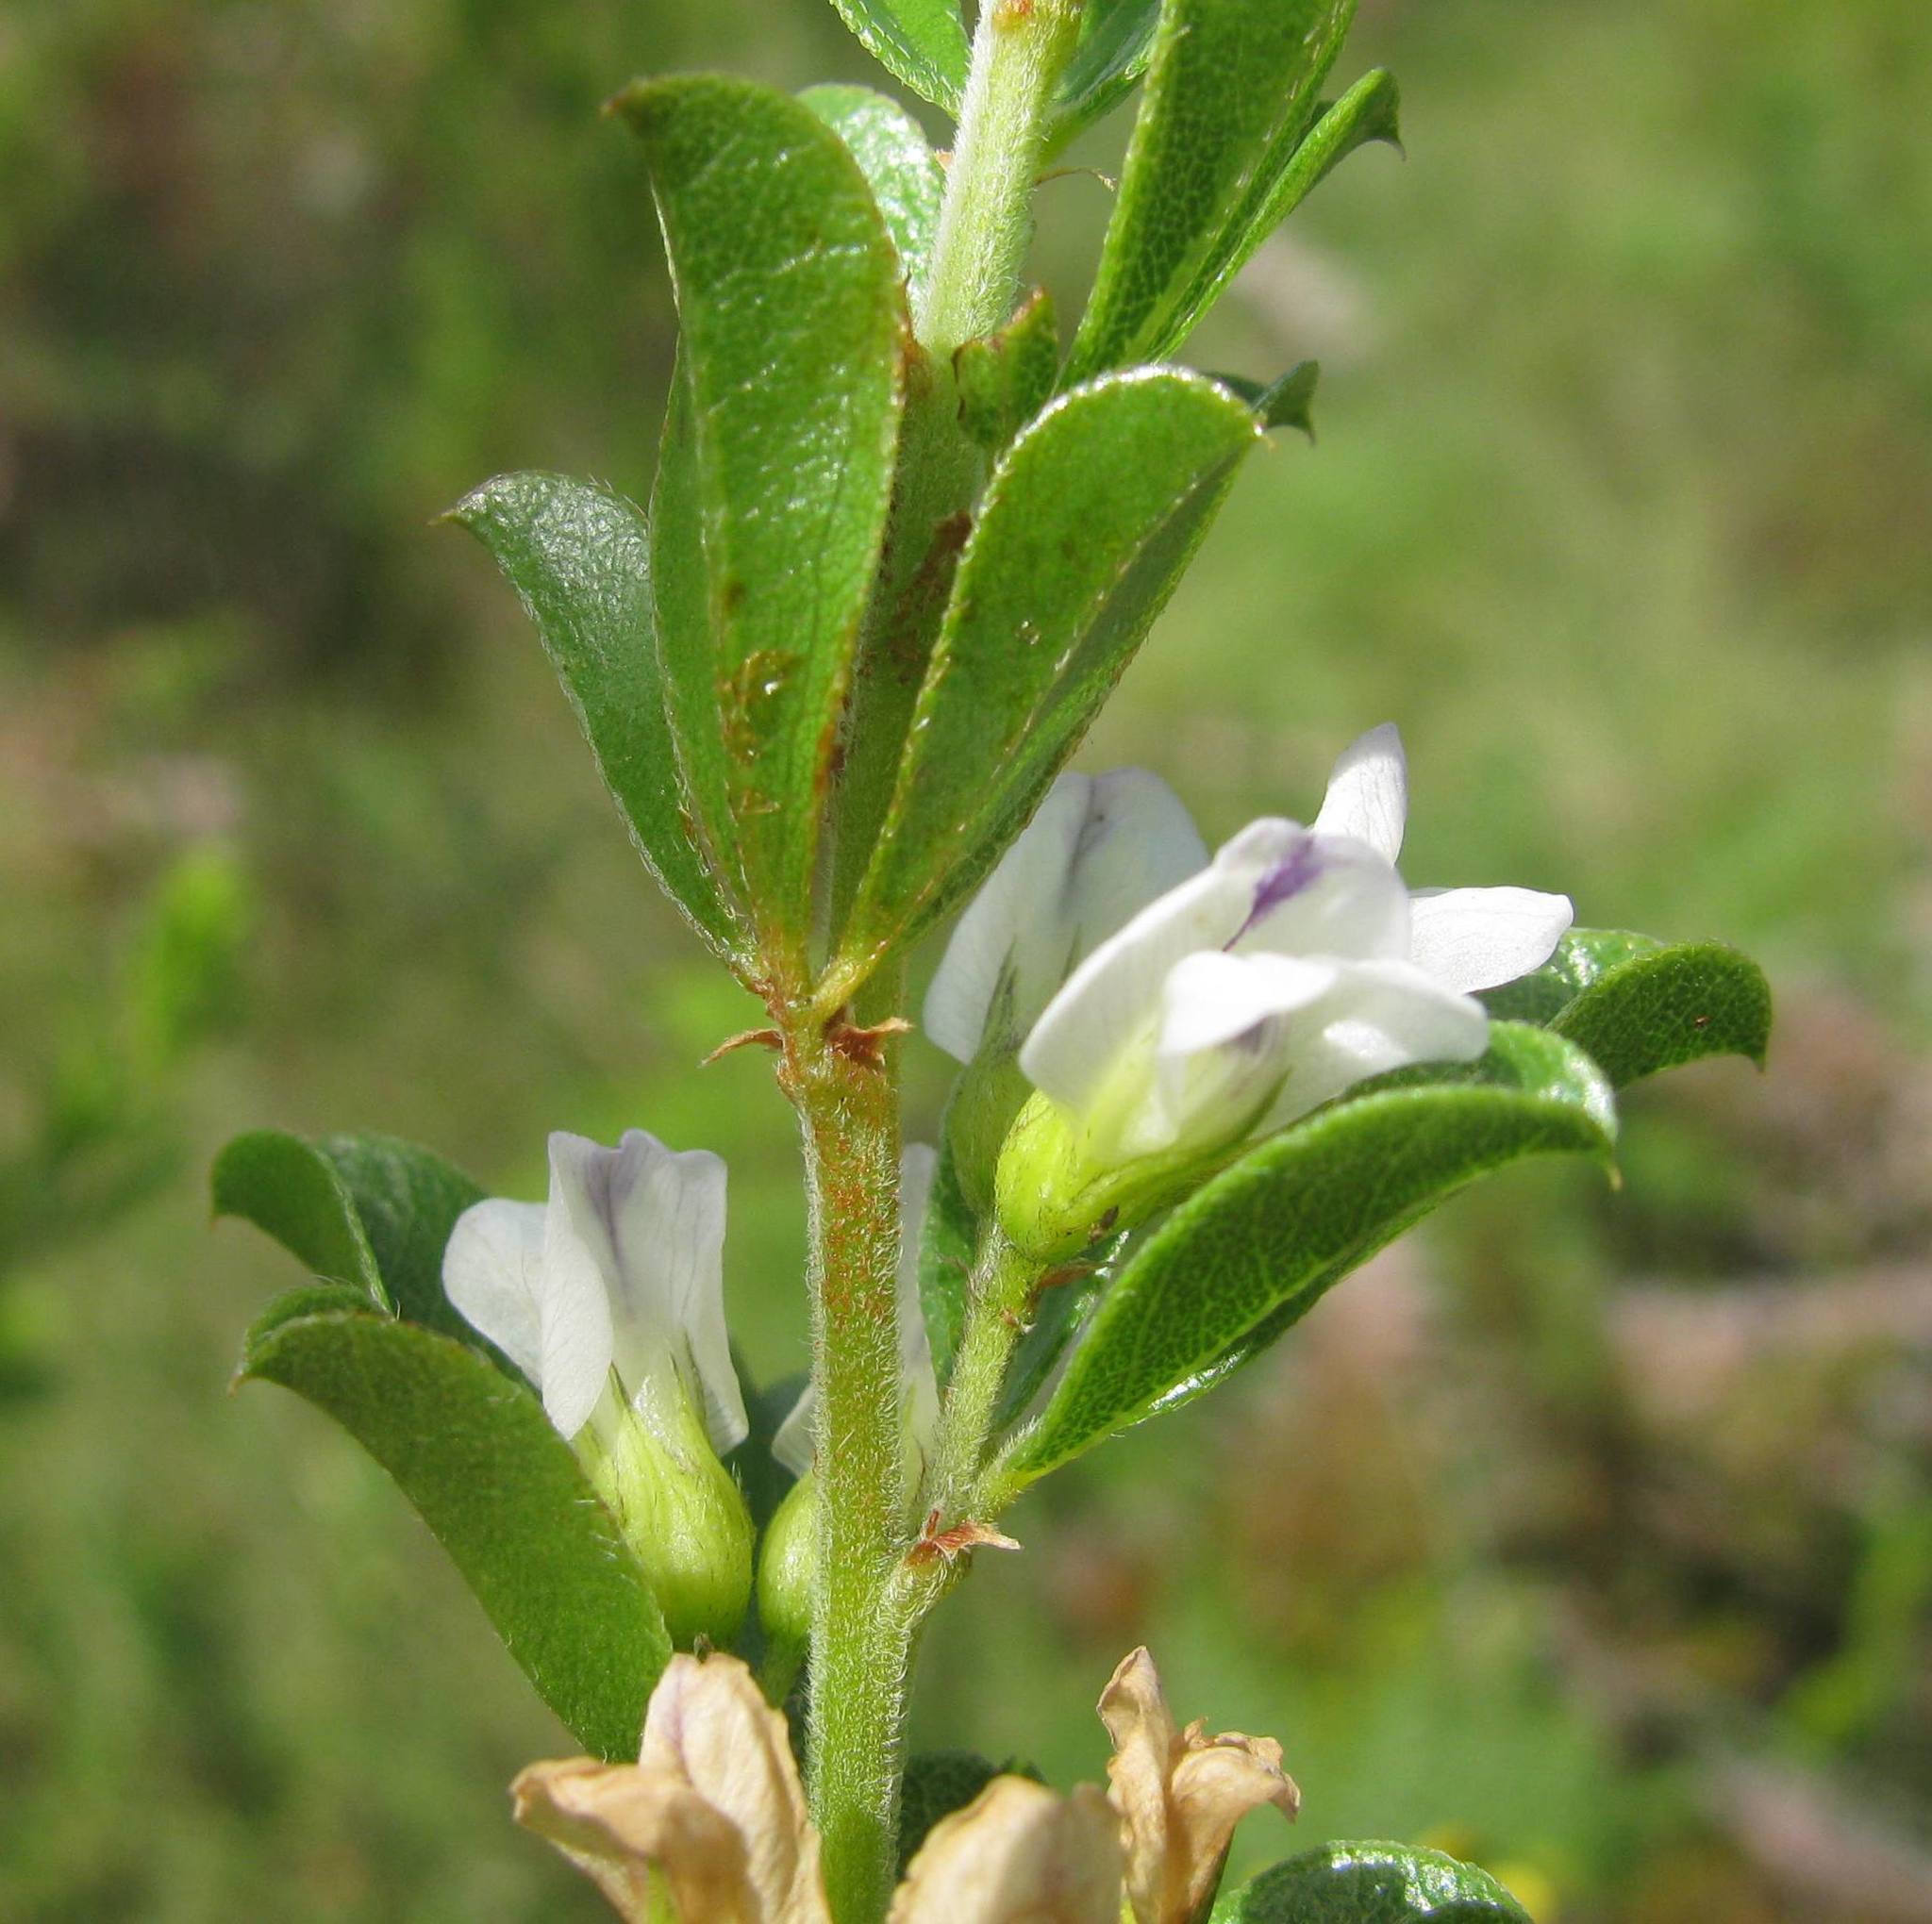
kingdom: Plantae
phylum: Tracheophyta
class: Magnoliopsida
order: Fabales
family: Fabaceae
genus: Psoralea
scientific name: Psoralea prodiens
